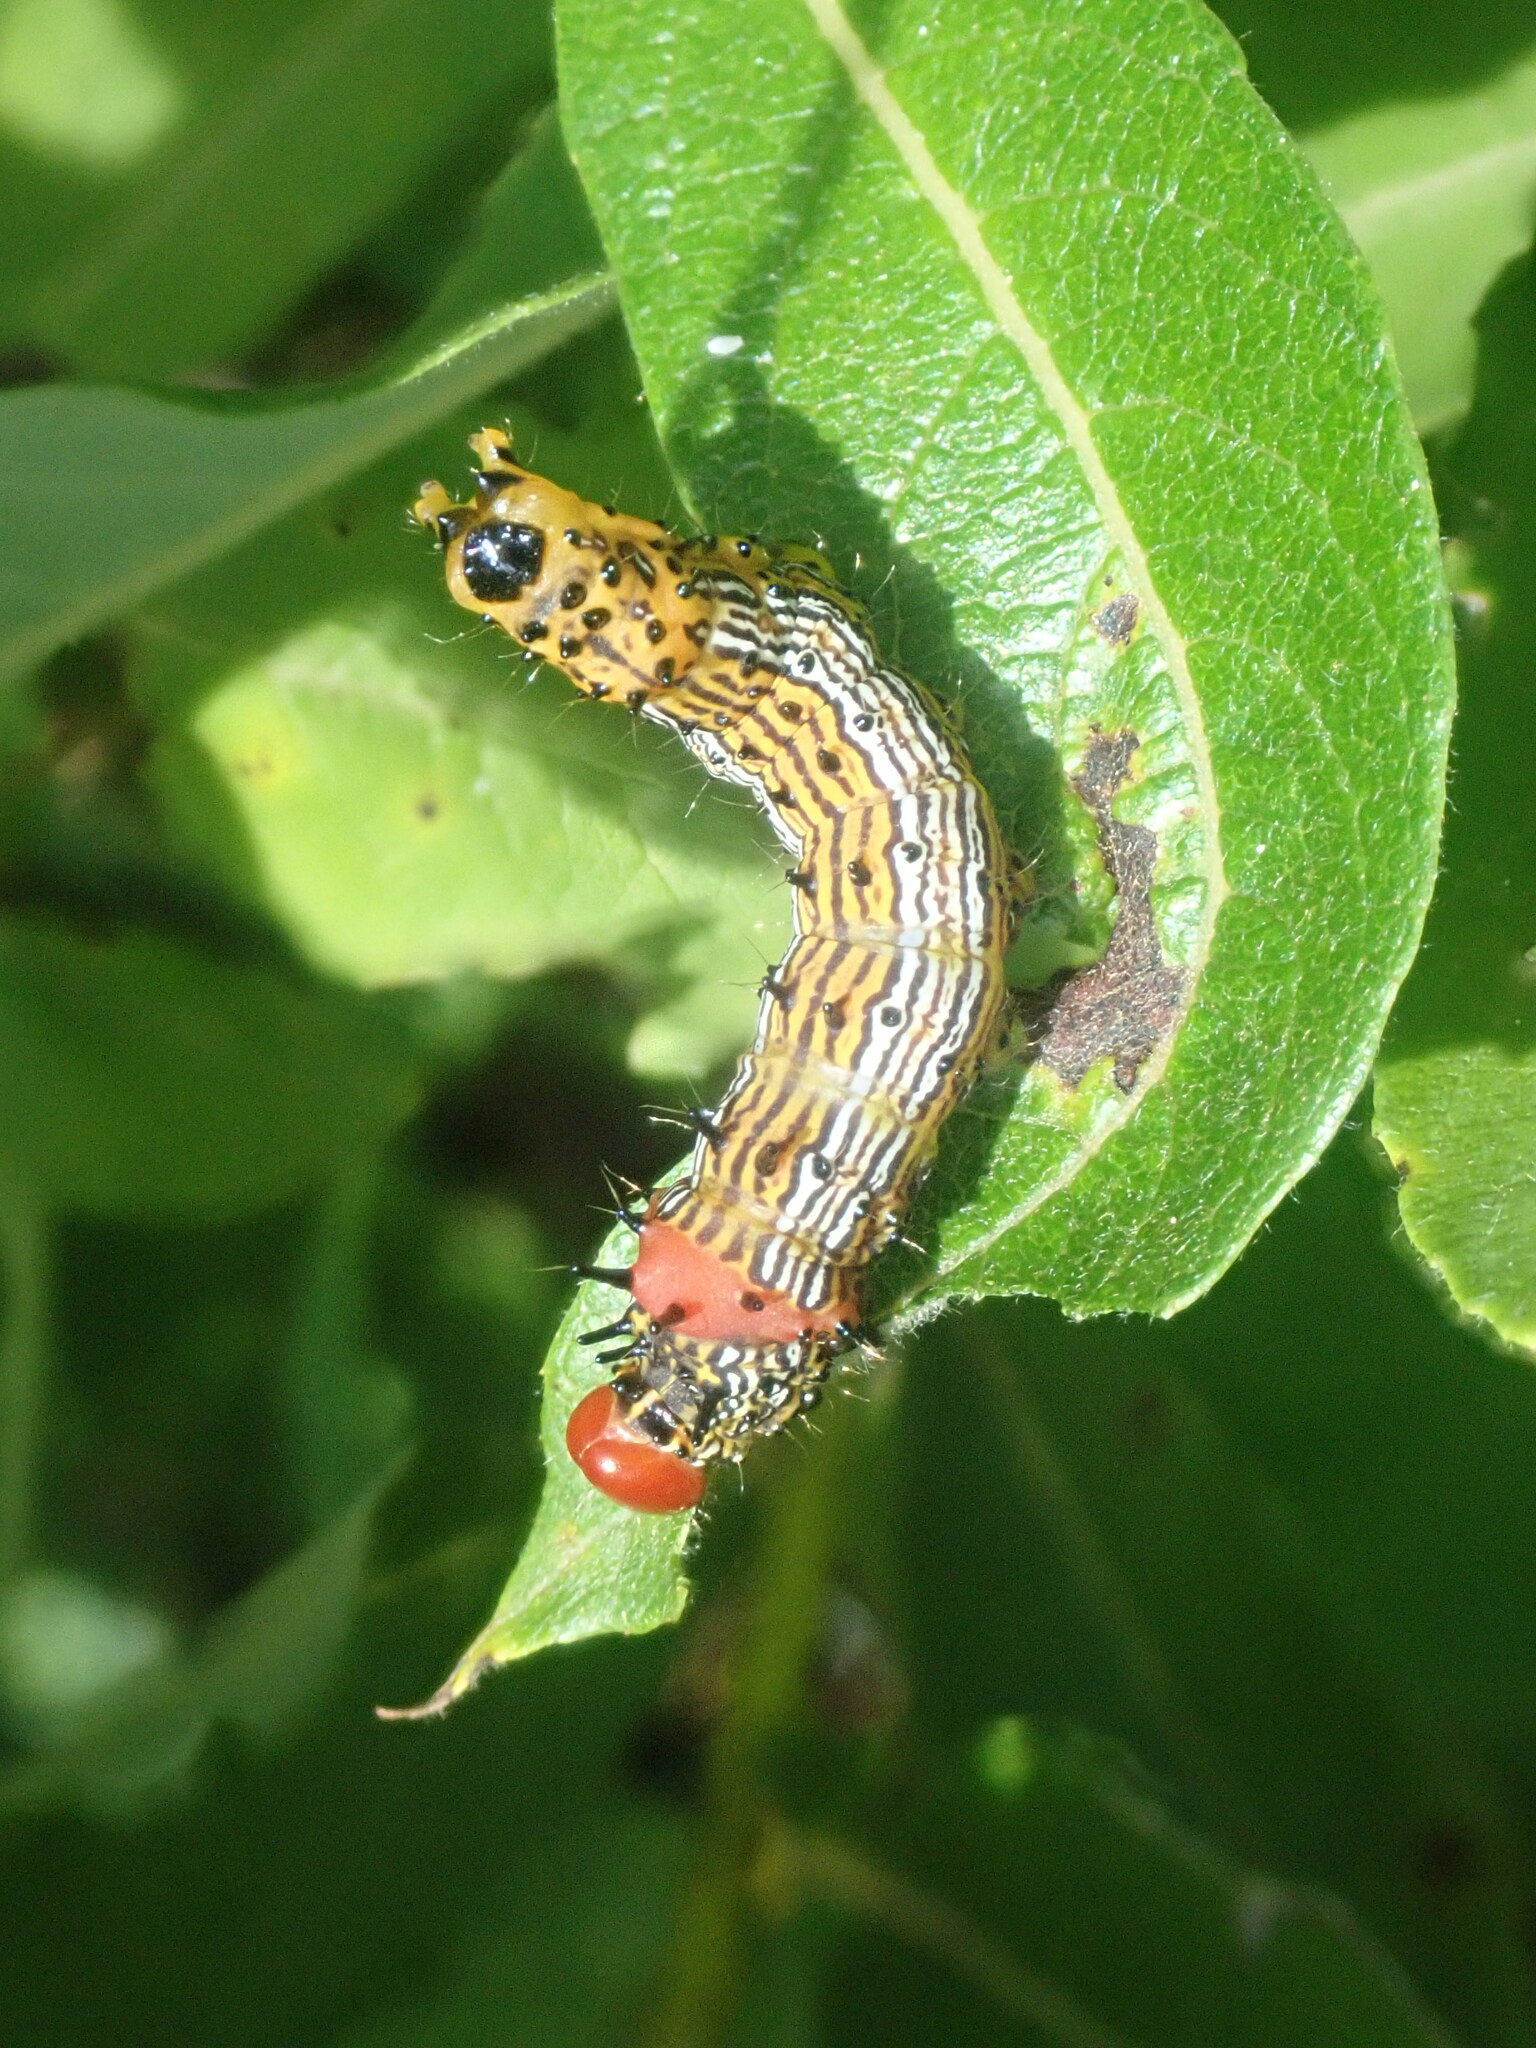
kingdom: Animalia
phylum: Arthropoda
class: Insecta
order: Lepidoptera
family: Notodontidae
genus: Schizura
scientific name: Schizura
